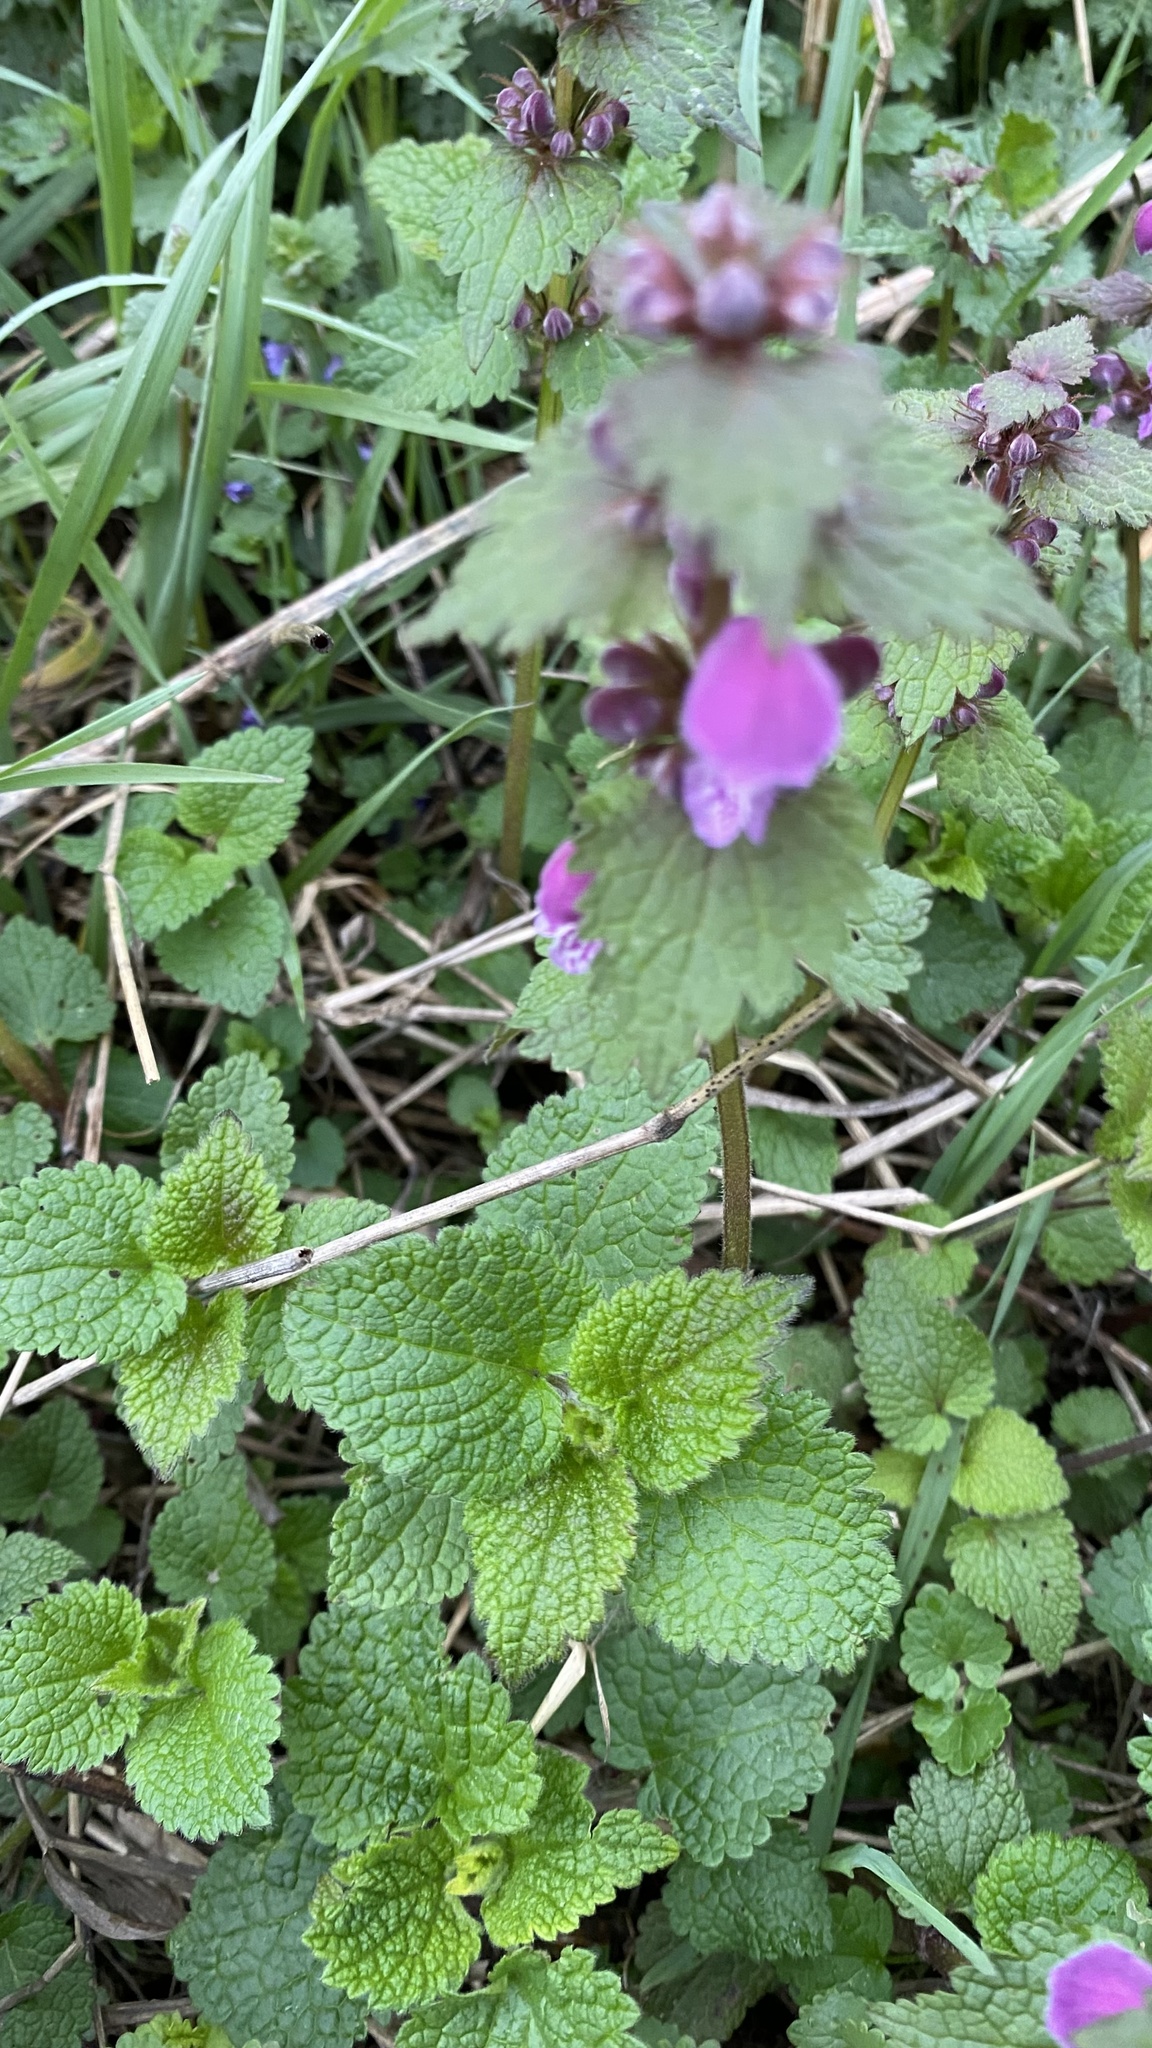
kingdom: Plantae
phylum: Tracheophyta
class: Magnoliopsida
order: Lamiales
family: Lamiaceae
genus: Lamium
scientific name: Lamium maculatum
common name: Spotted dead-nettle
